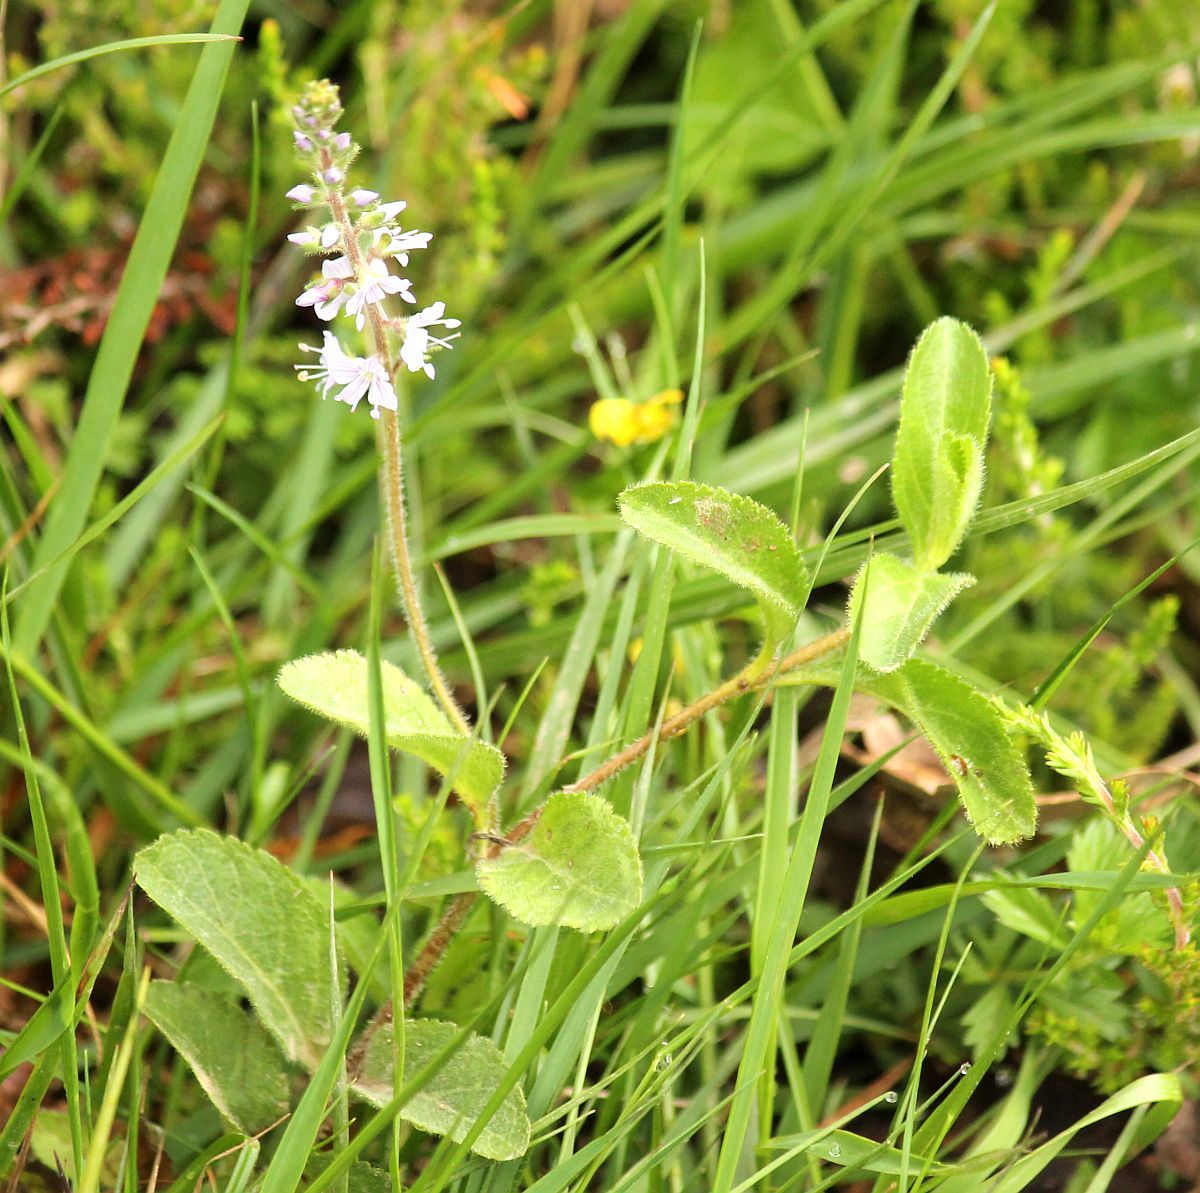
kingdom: Plantae
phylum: Tracheophyta
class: Magnoliopsida
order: Lamiales
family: Plantaginaceae
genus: Veronica
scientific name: Veronica officinalis
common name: Common speedwell
